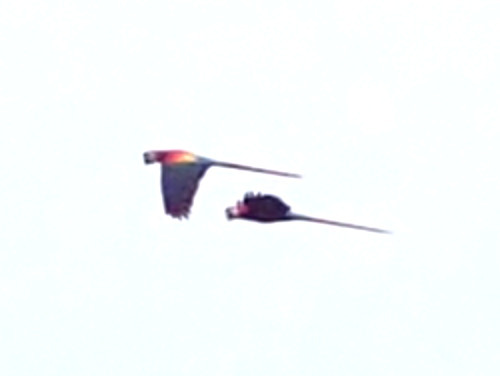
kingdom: Animalia
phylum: Chordata
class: Aves
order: Psittaciformes
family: Psittacidae
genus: Ara
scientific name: Ara macao
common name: Scarlet macaw
